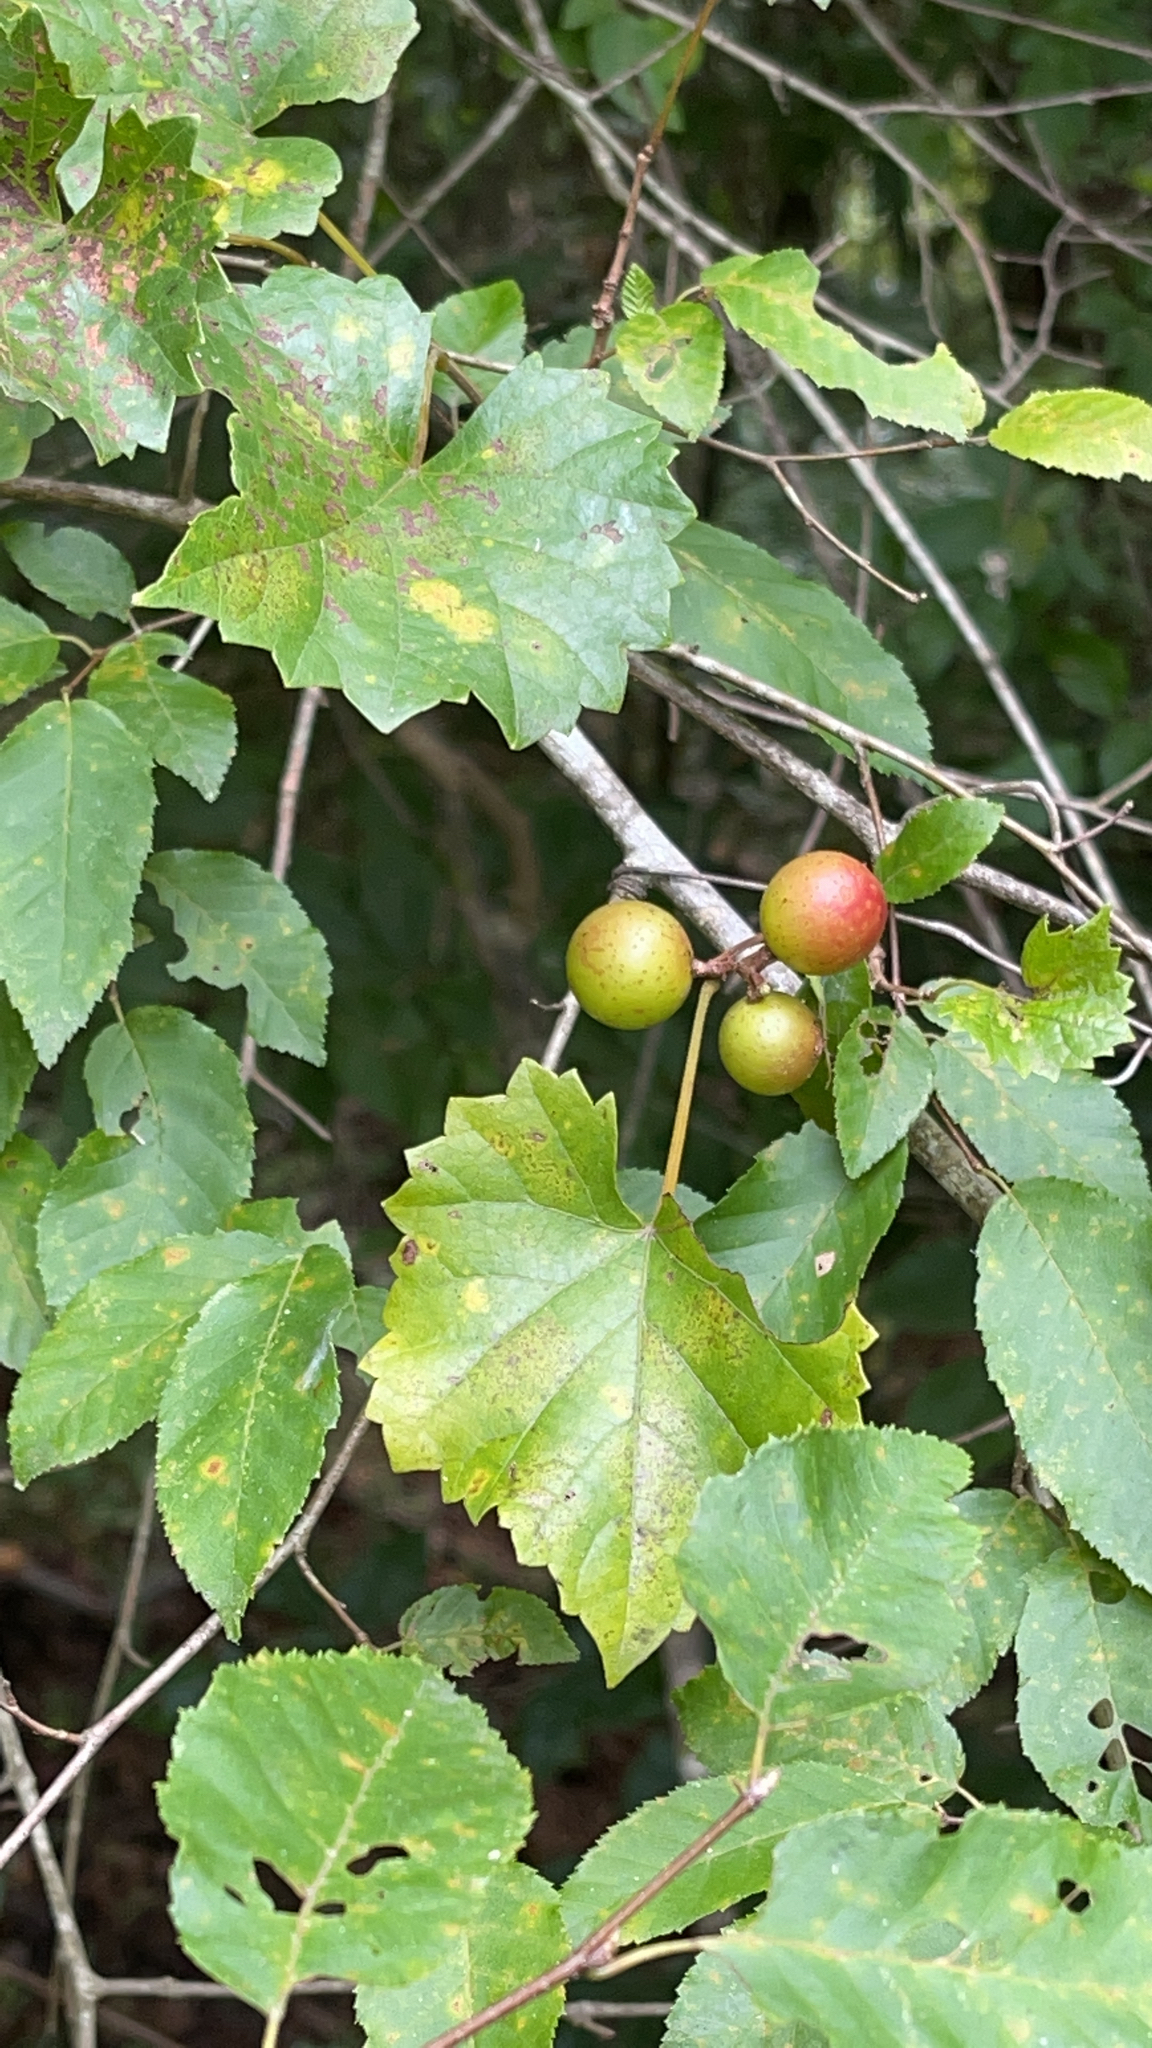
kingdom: Plantae
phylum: Tracheophyta
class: Magnoliopsida
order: Vitales
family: Vitaceae
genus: Vitis
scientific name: Vitis rotundifolia
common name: Muscadine grape
